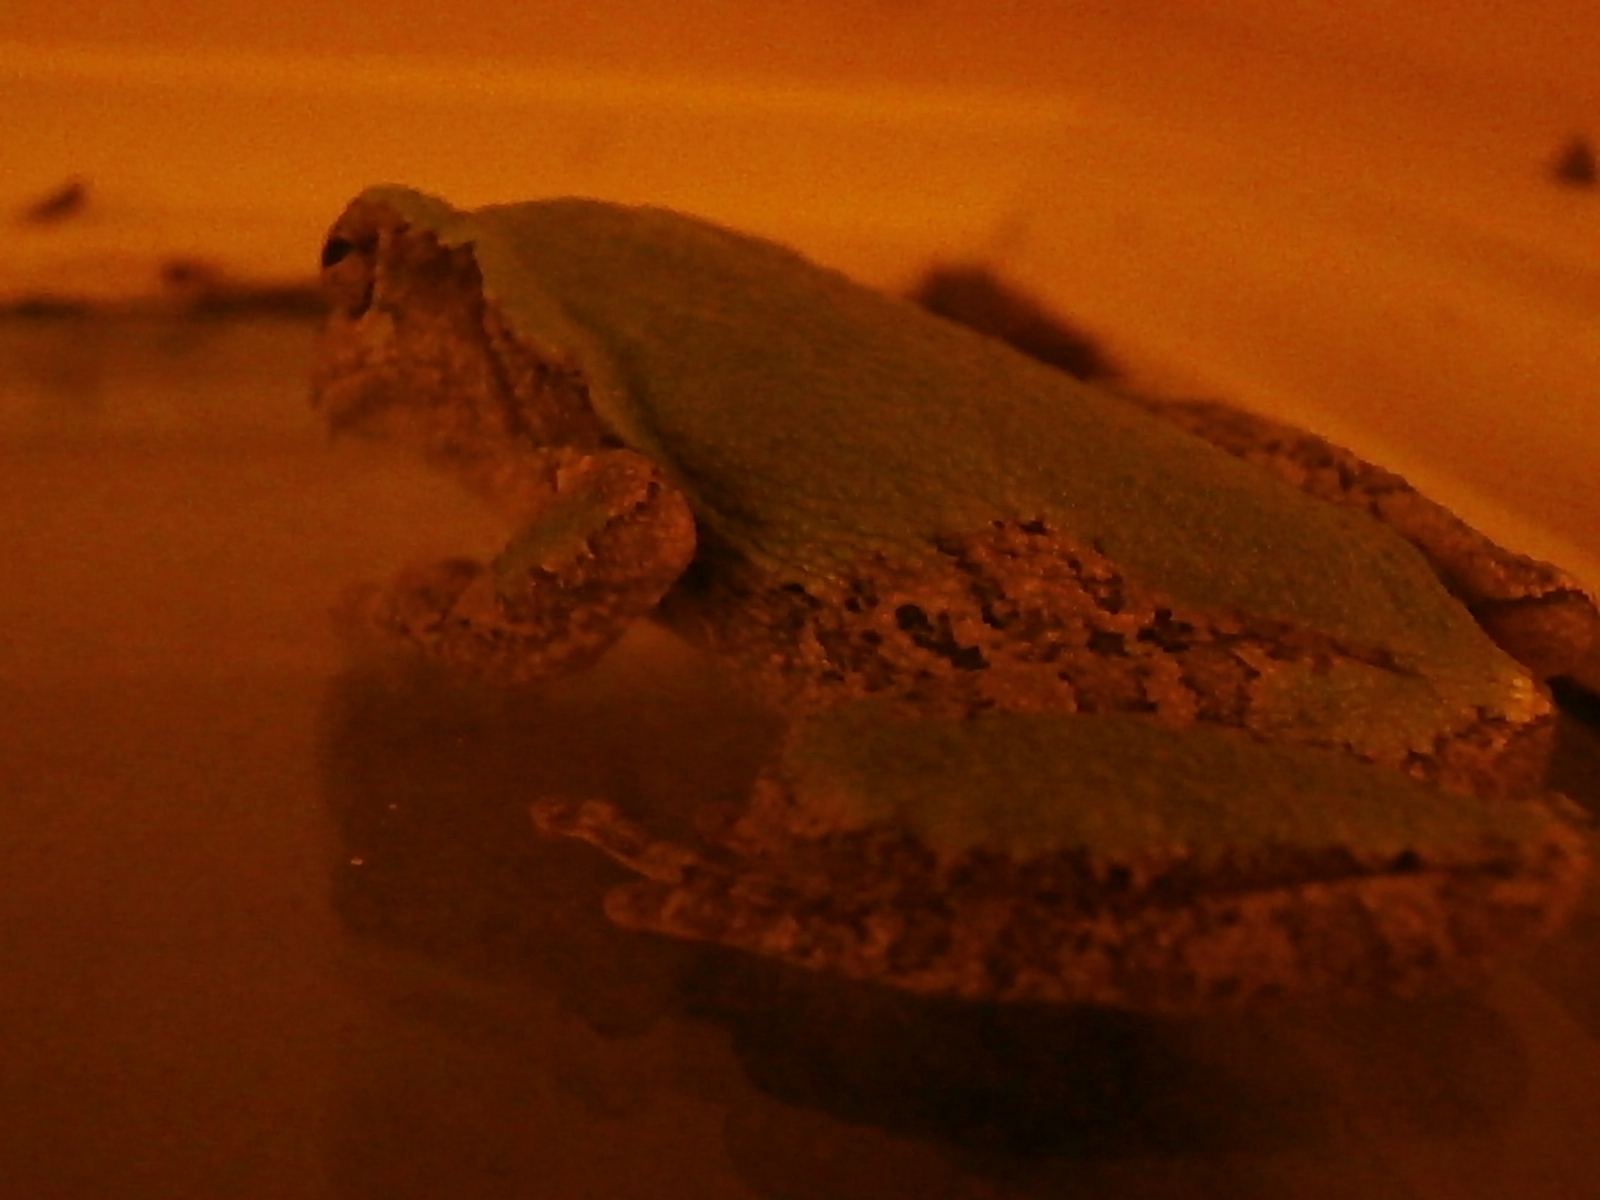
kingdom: Animalia
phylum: Chordata
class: Amphibia
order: Anura
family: Hylidae
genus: Hyla
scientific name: Hyla
